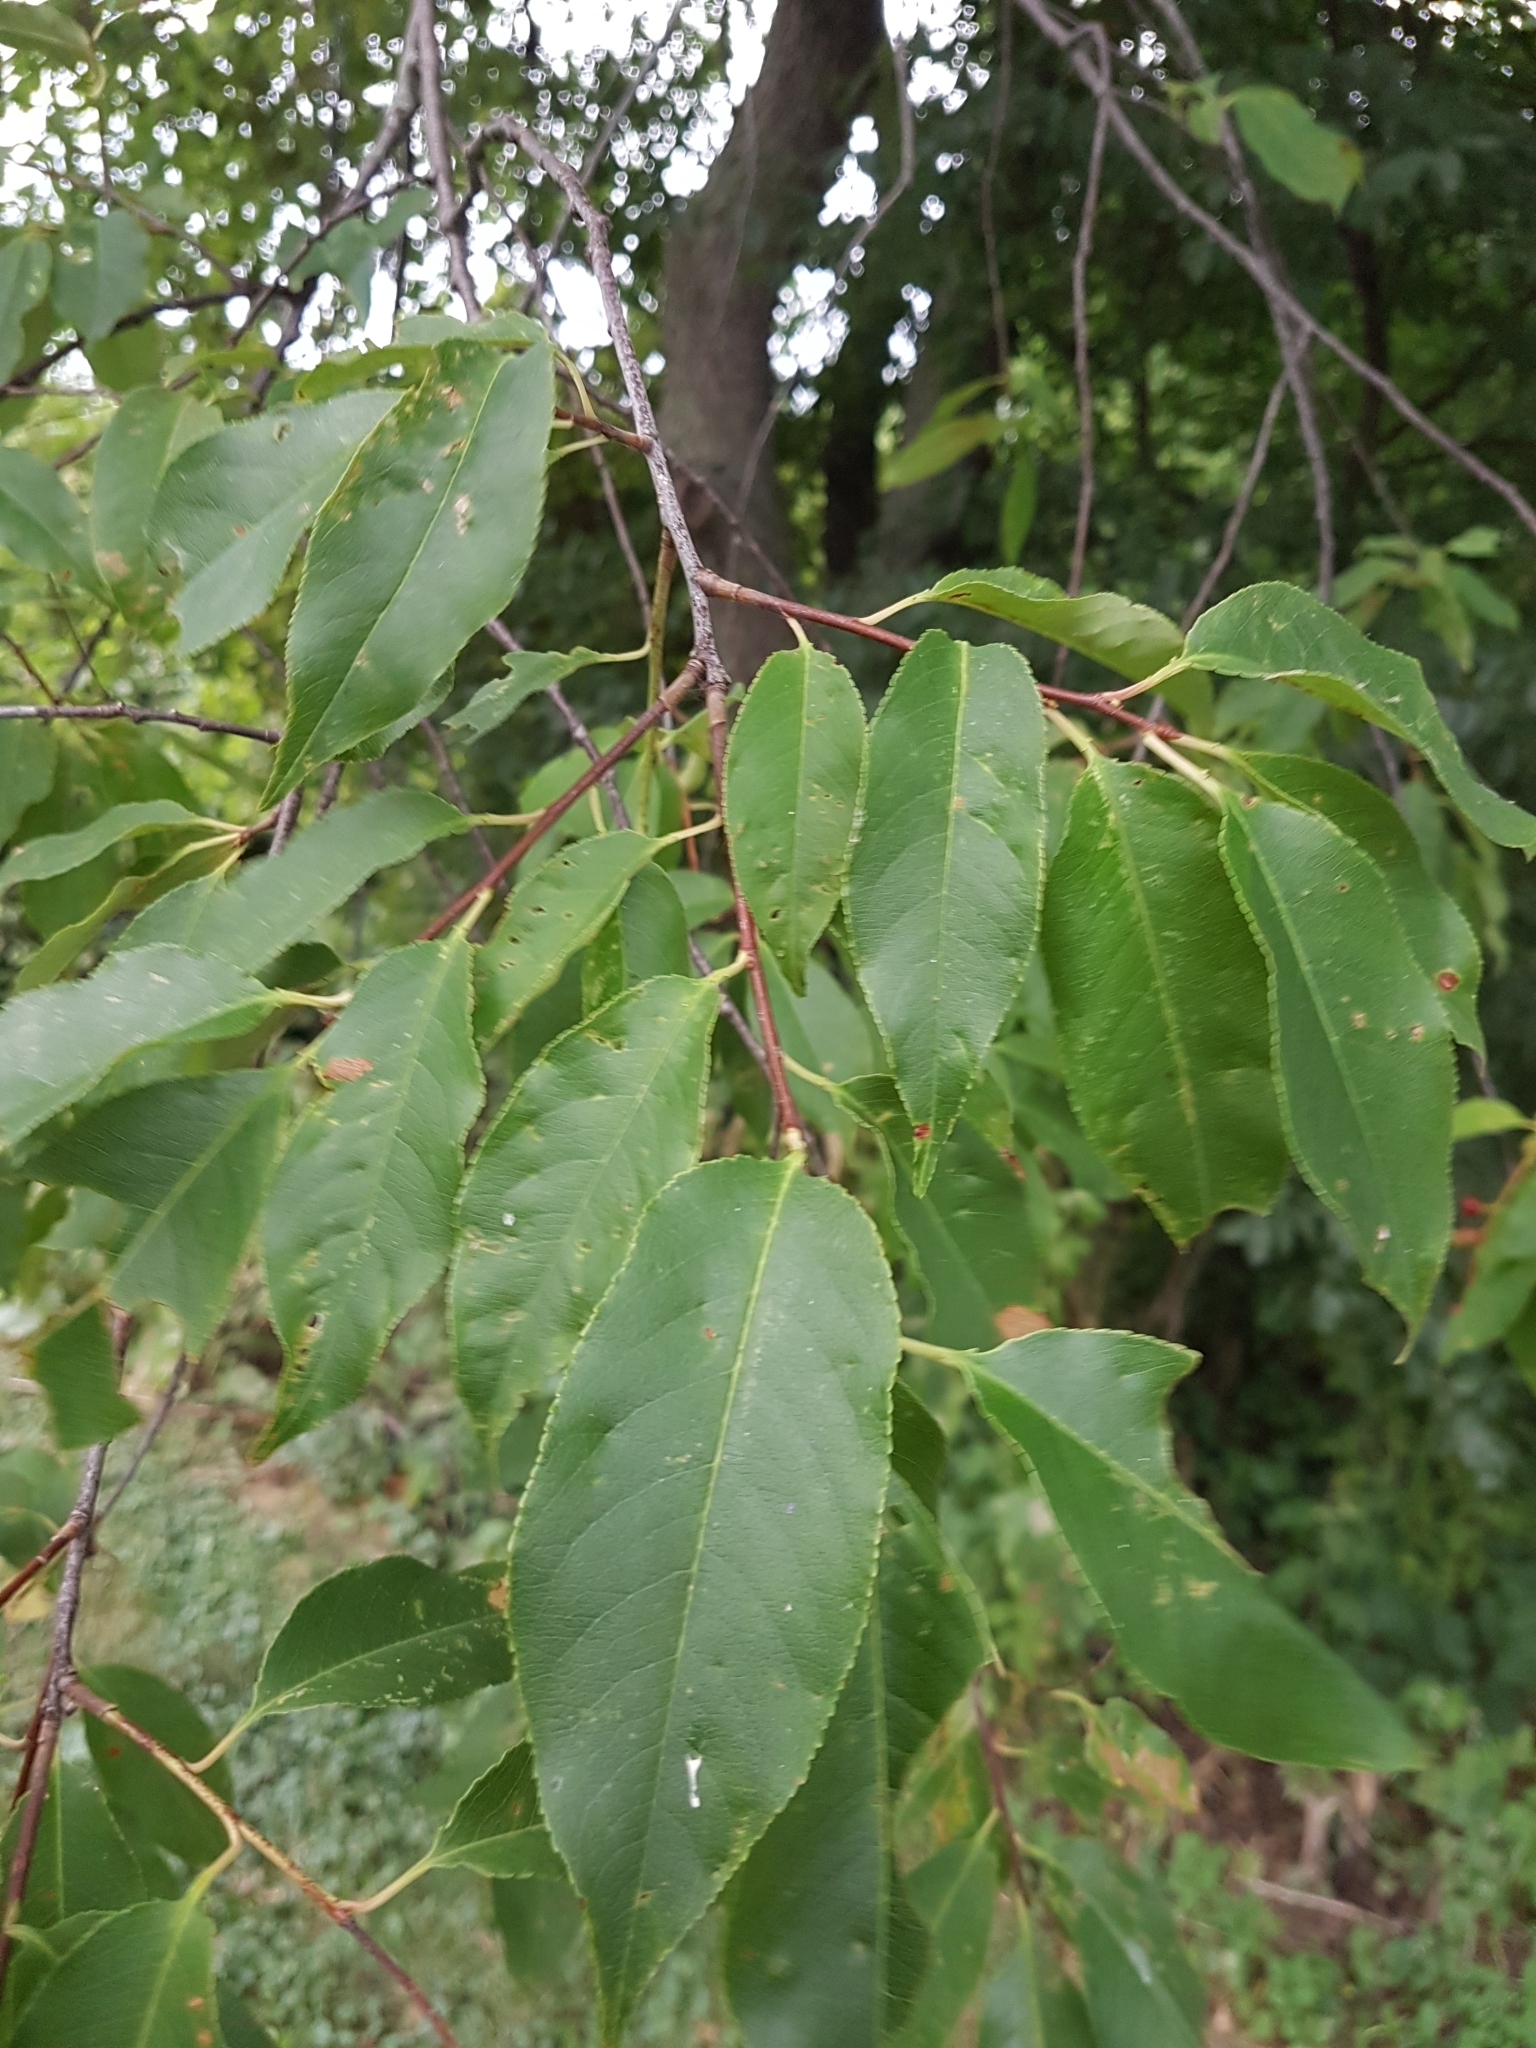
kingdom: Plantae
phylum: Tracheophyta
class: Magnoliopsida
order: Rosales
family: Rosaceae
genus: Prunus
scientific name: Prunus serotina
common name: Black cherry
